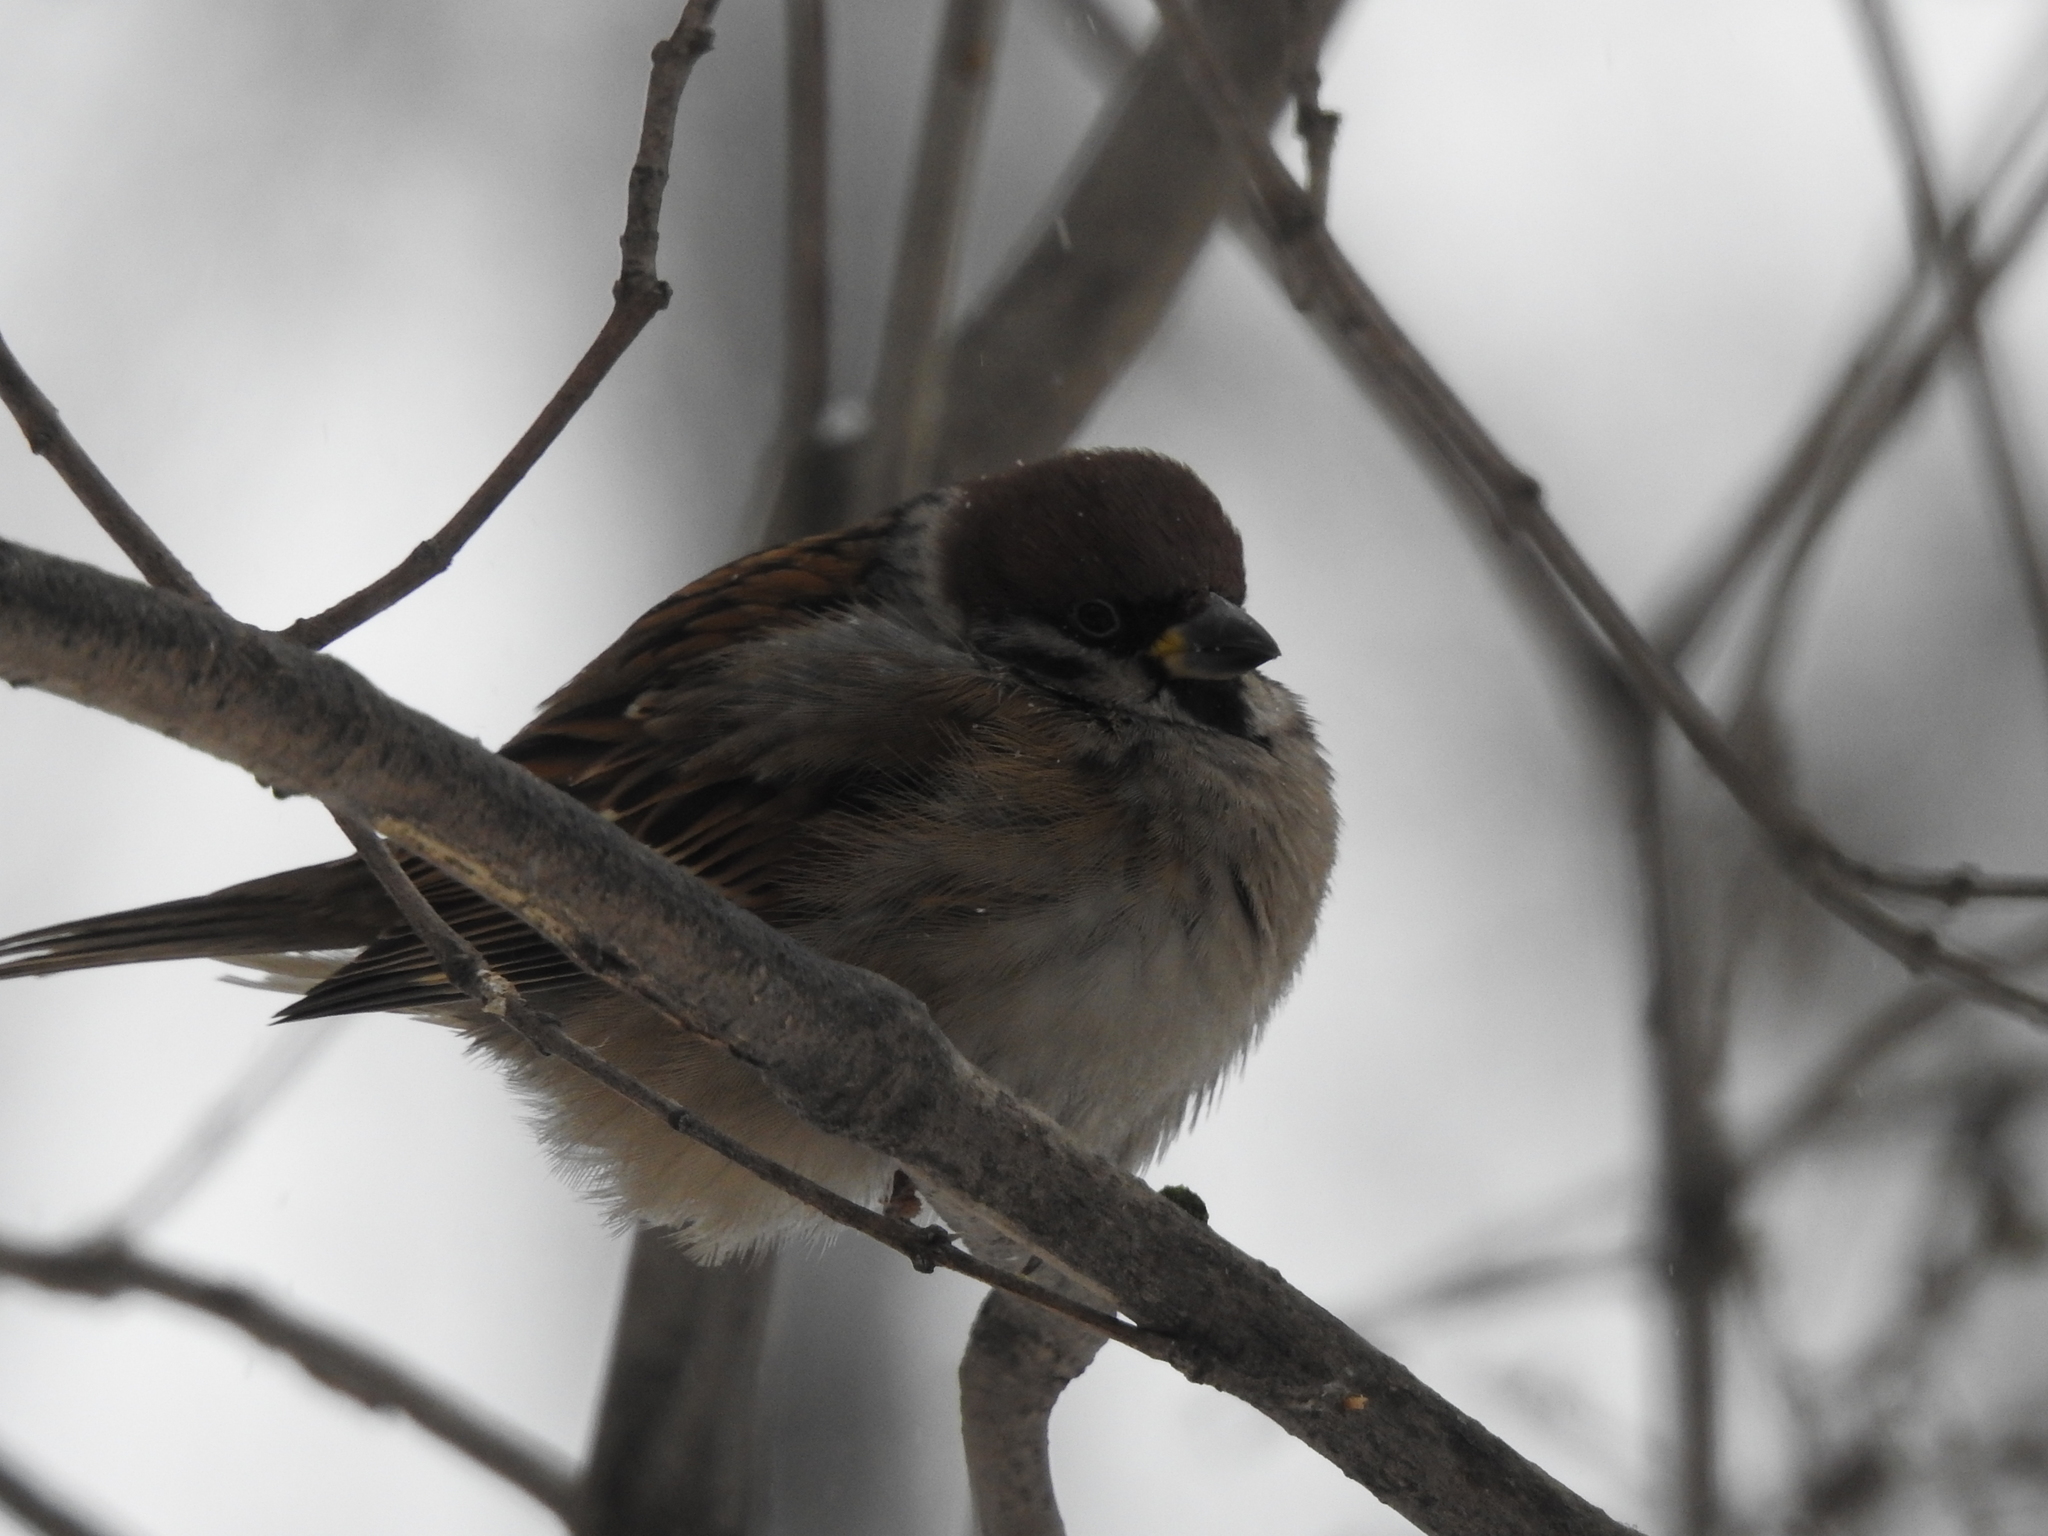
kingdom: Animalia
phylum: Chordata
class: Aves
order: Passeriformes
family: Passeridae
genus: Passer
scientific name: Passer montanus
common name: Eurasian tree sparrow
